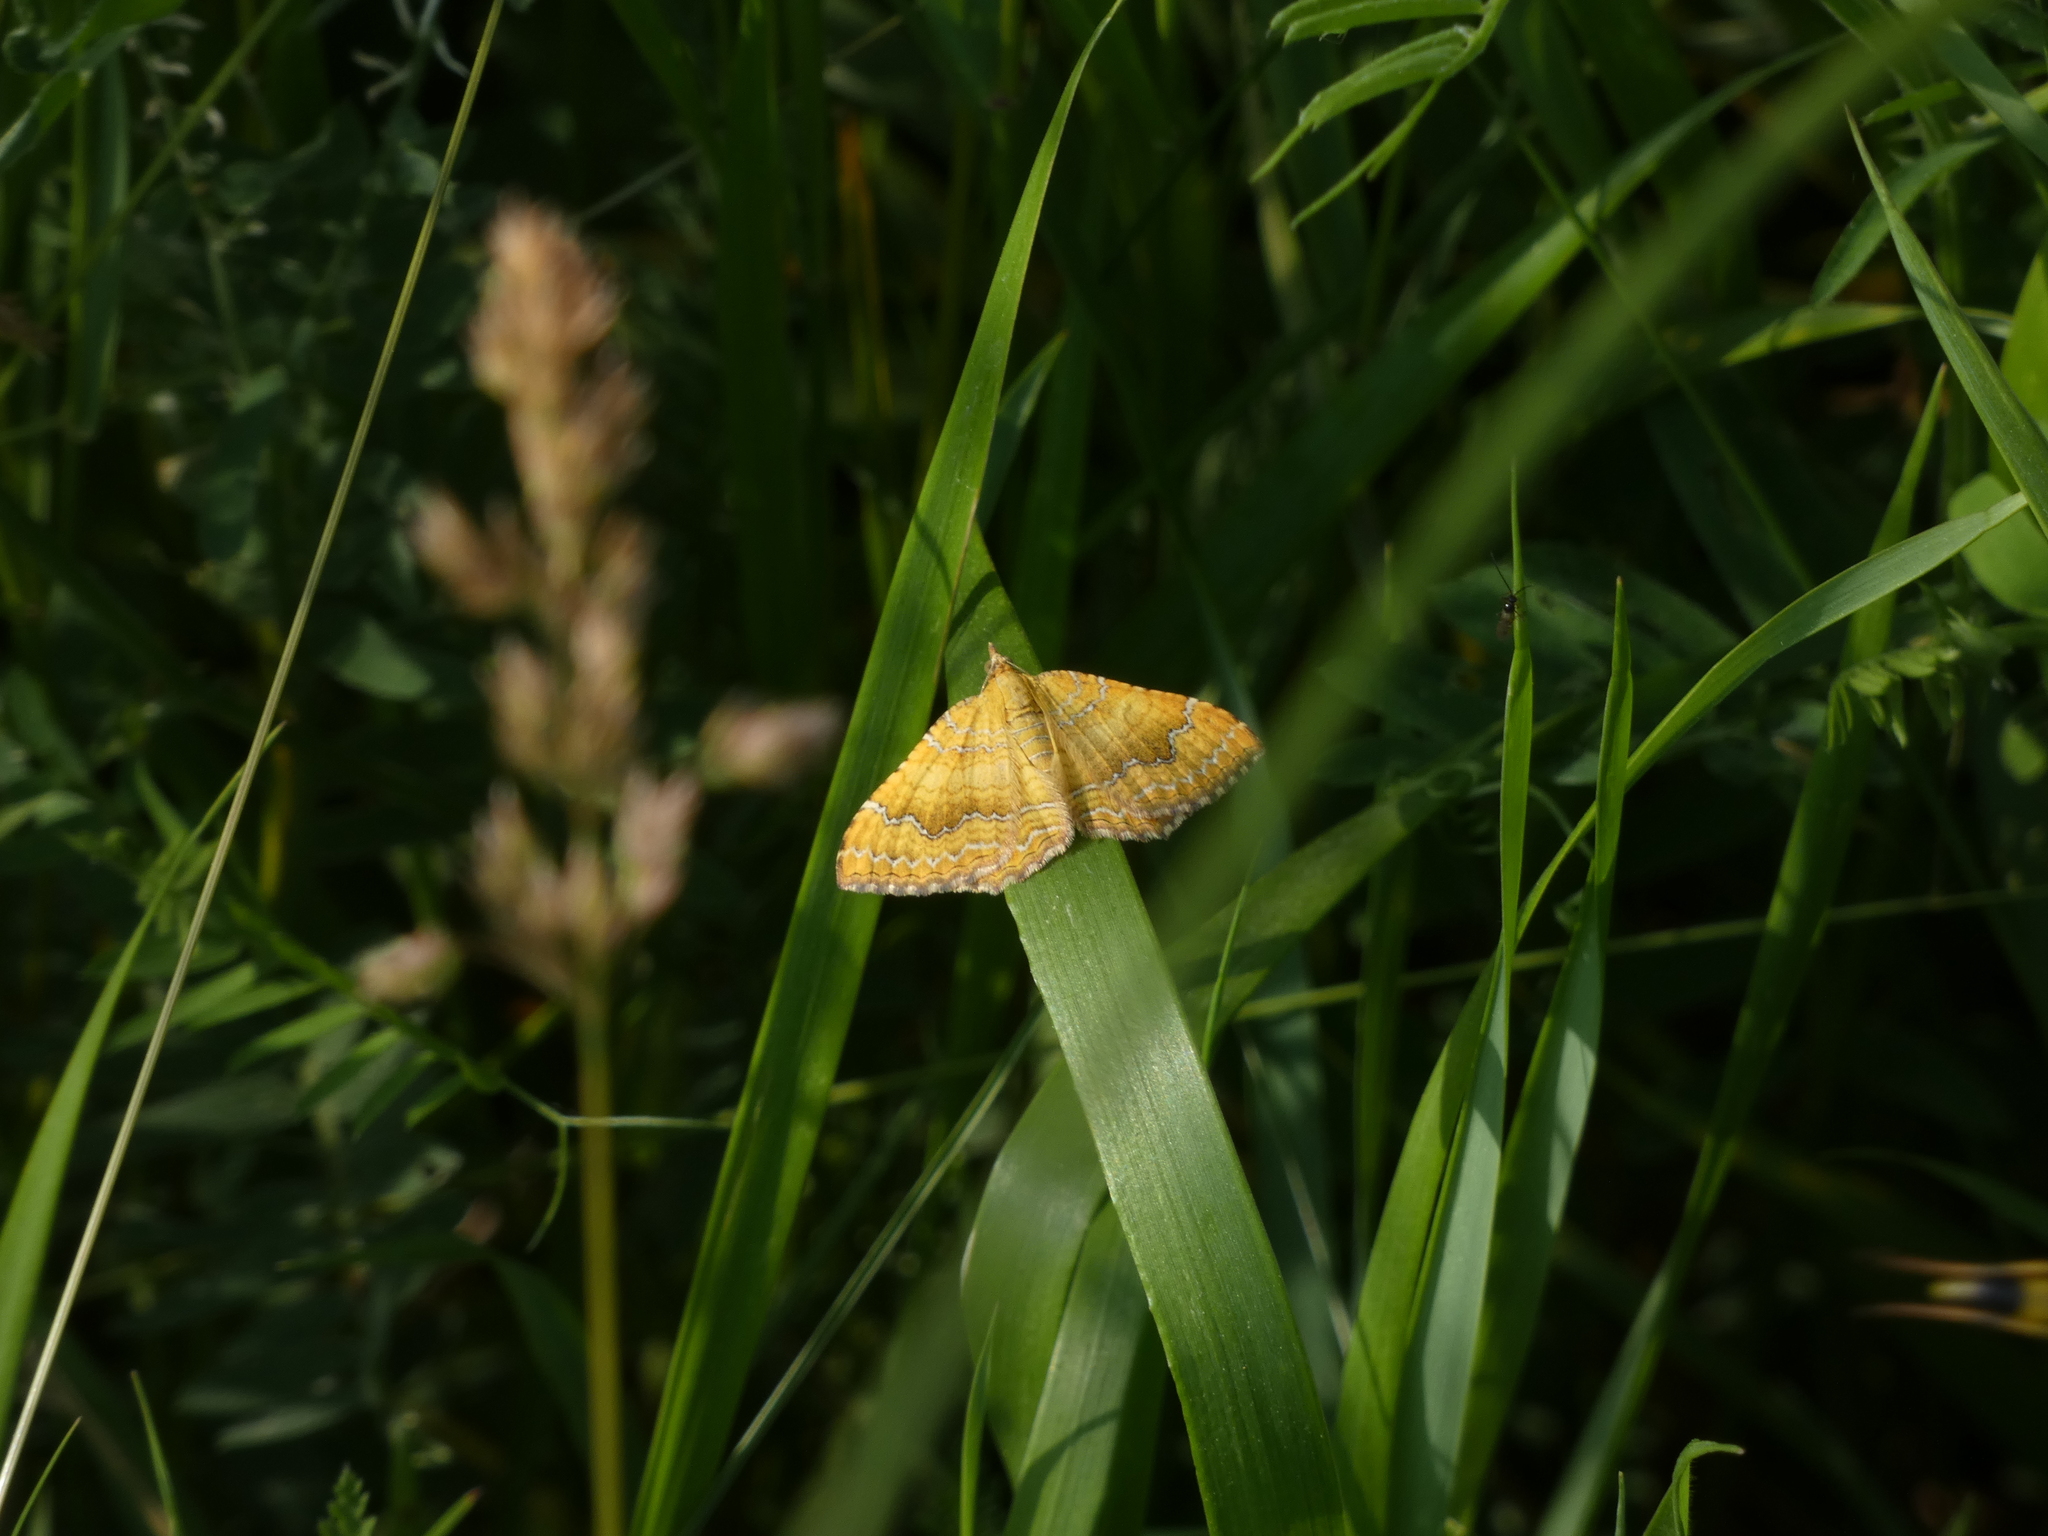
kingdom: Animalia
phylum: Arthropoda
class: Insecta
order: Lepidoptera
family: Geometridae
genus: Camptogramma
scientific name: Camptogramma bilineata
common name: Yellow shell
